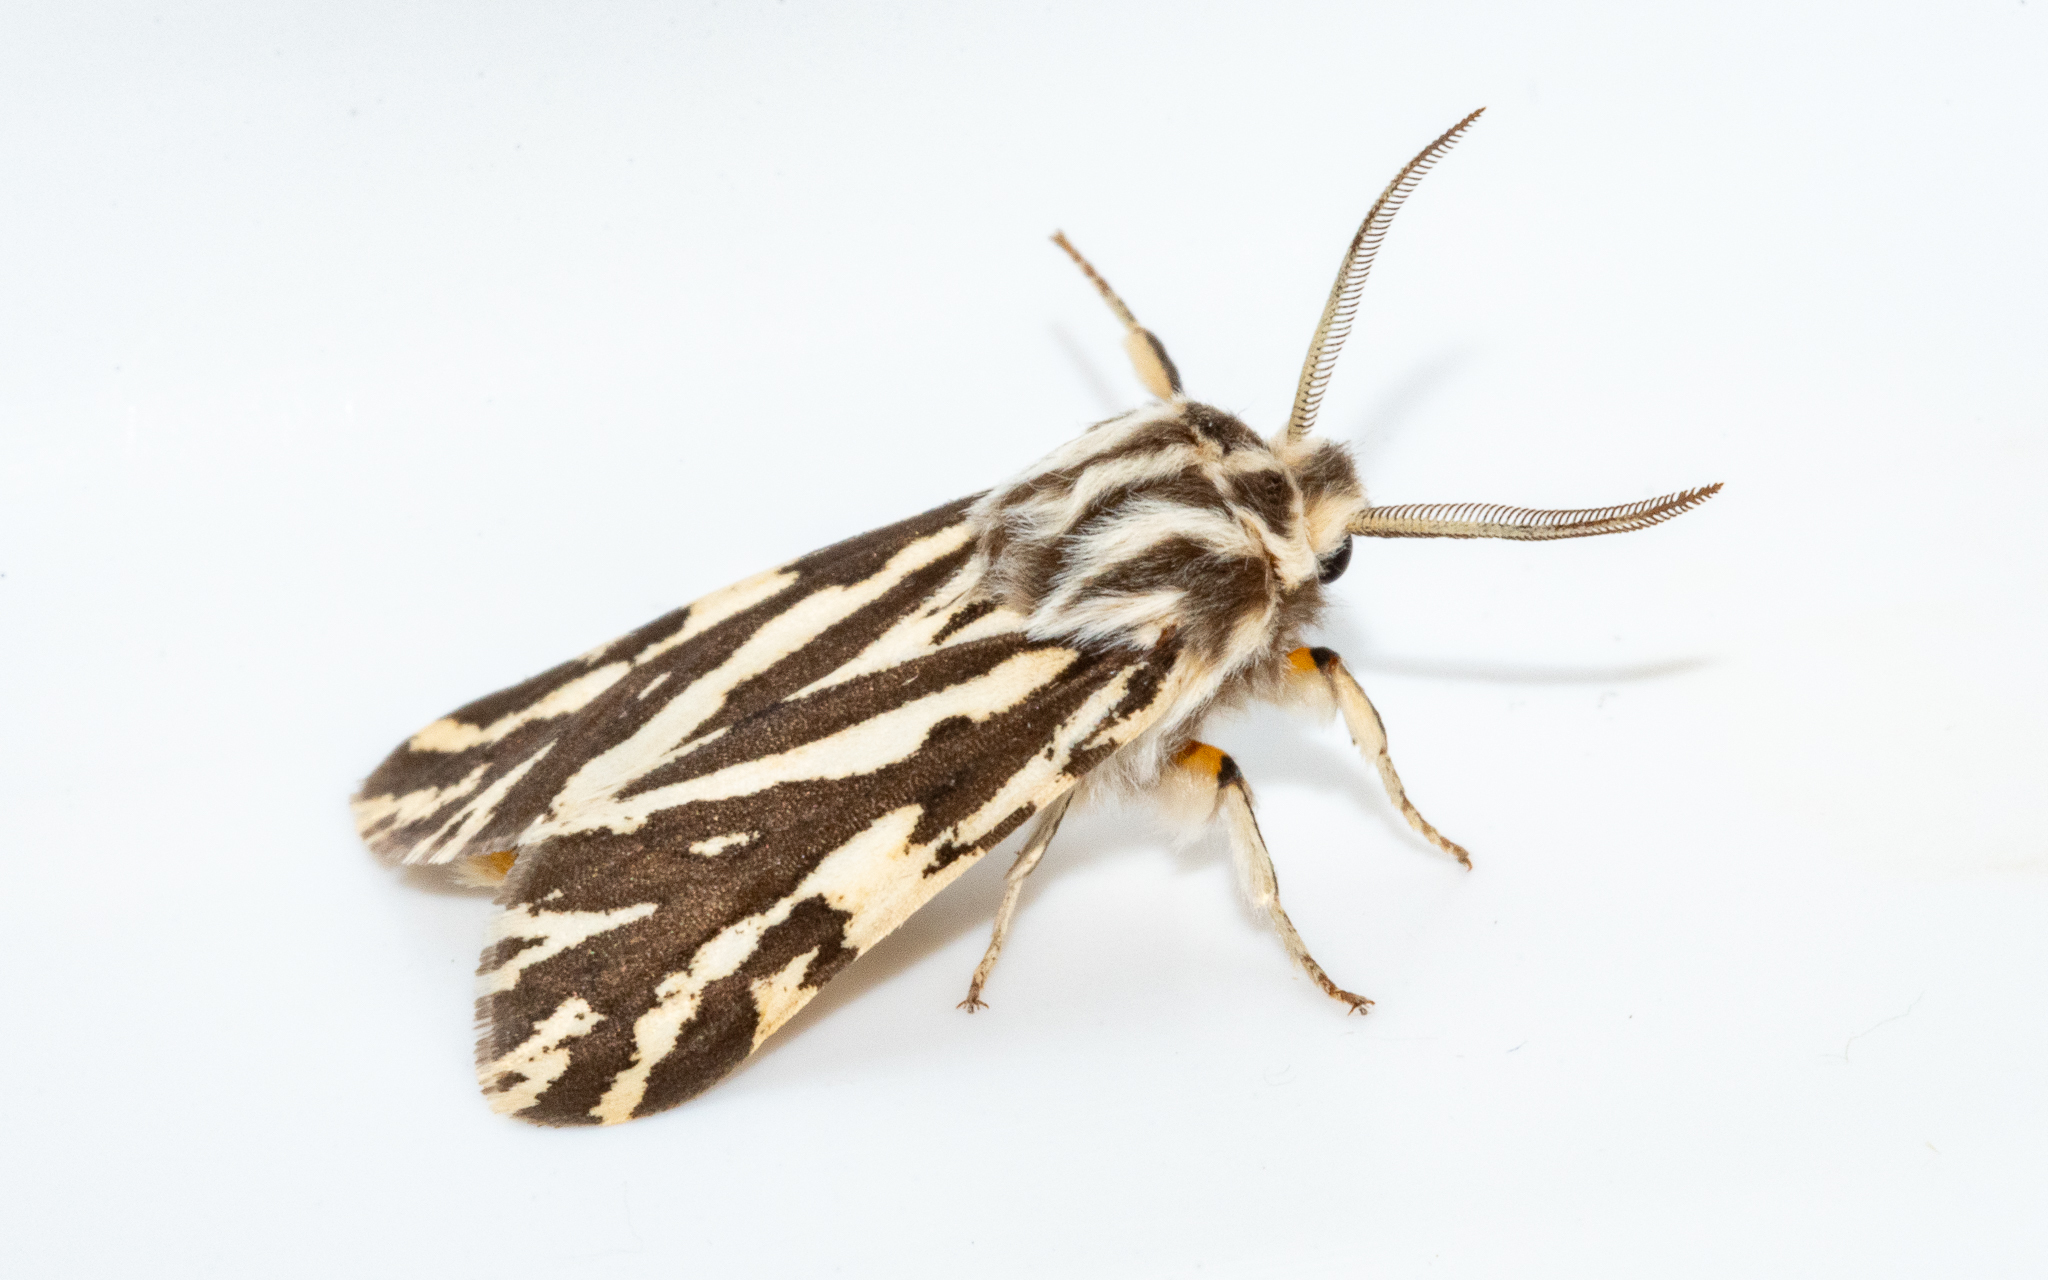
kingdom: Animalia
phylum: Arthropoda
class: Insecta
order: Lepidoptera
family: Erebidae
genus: Paralacydes
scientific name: Paralacydes vocula
